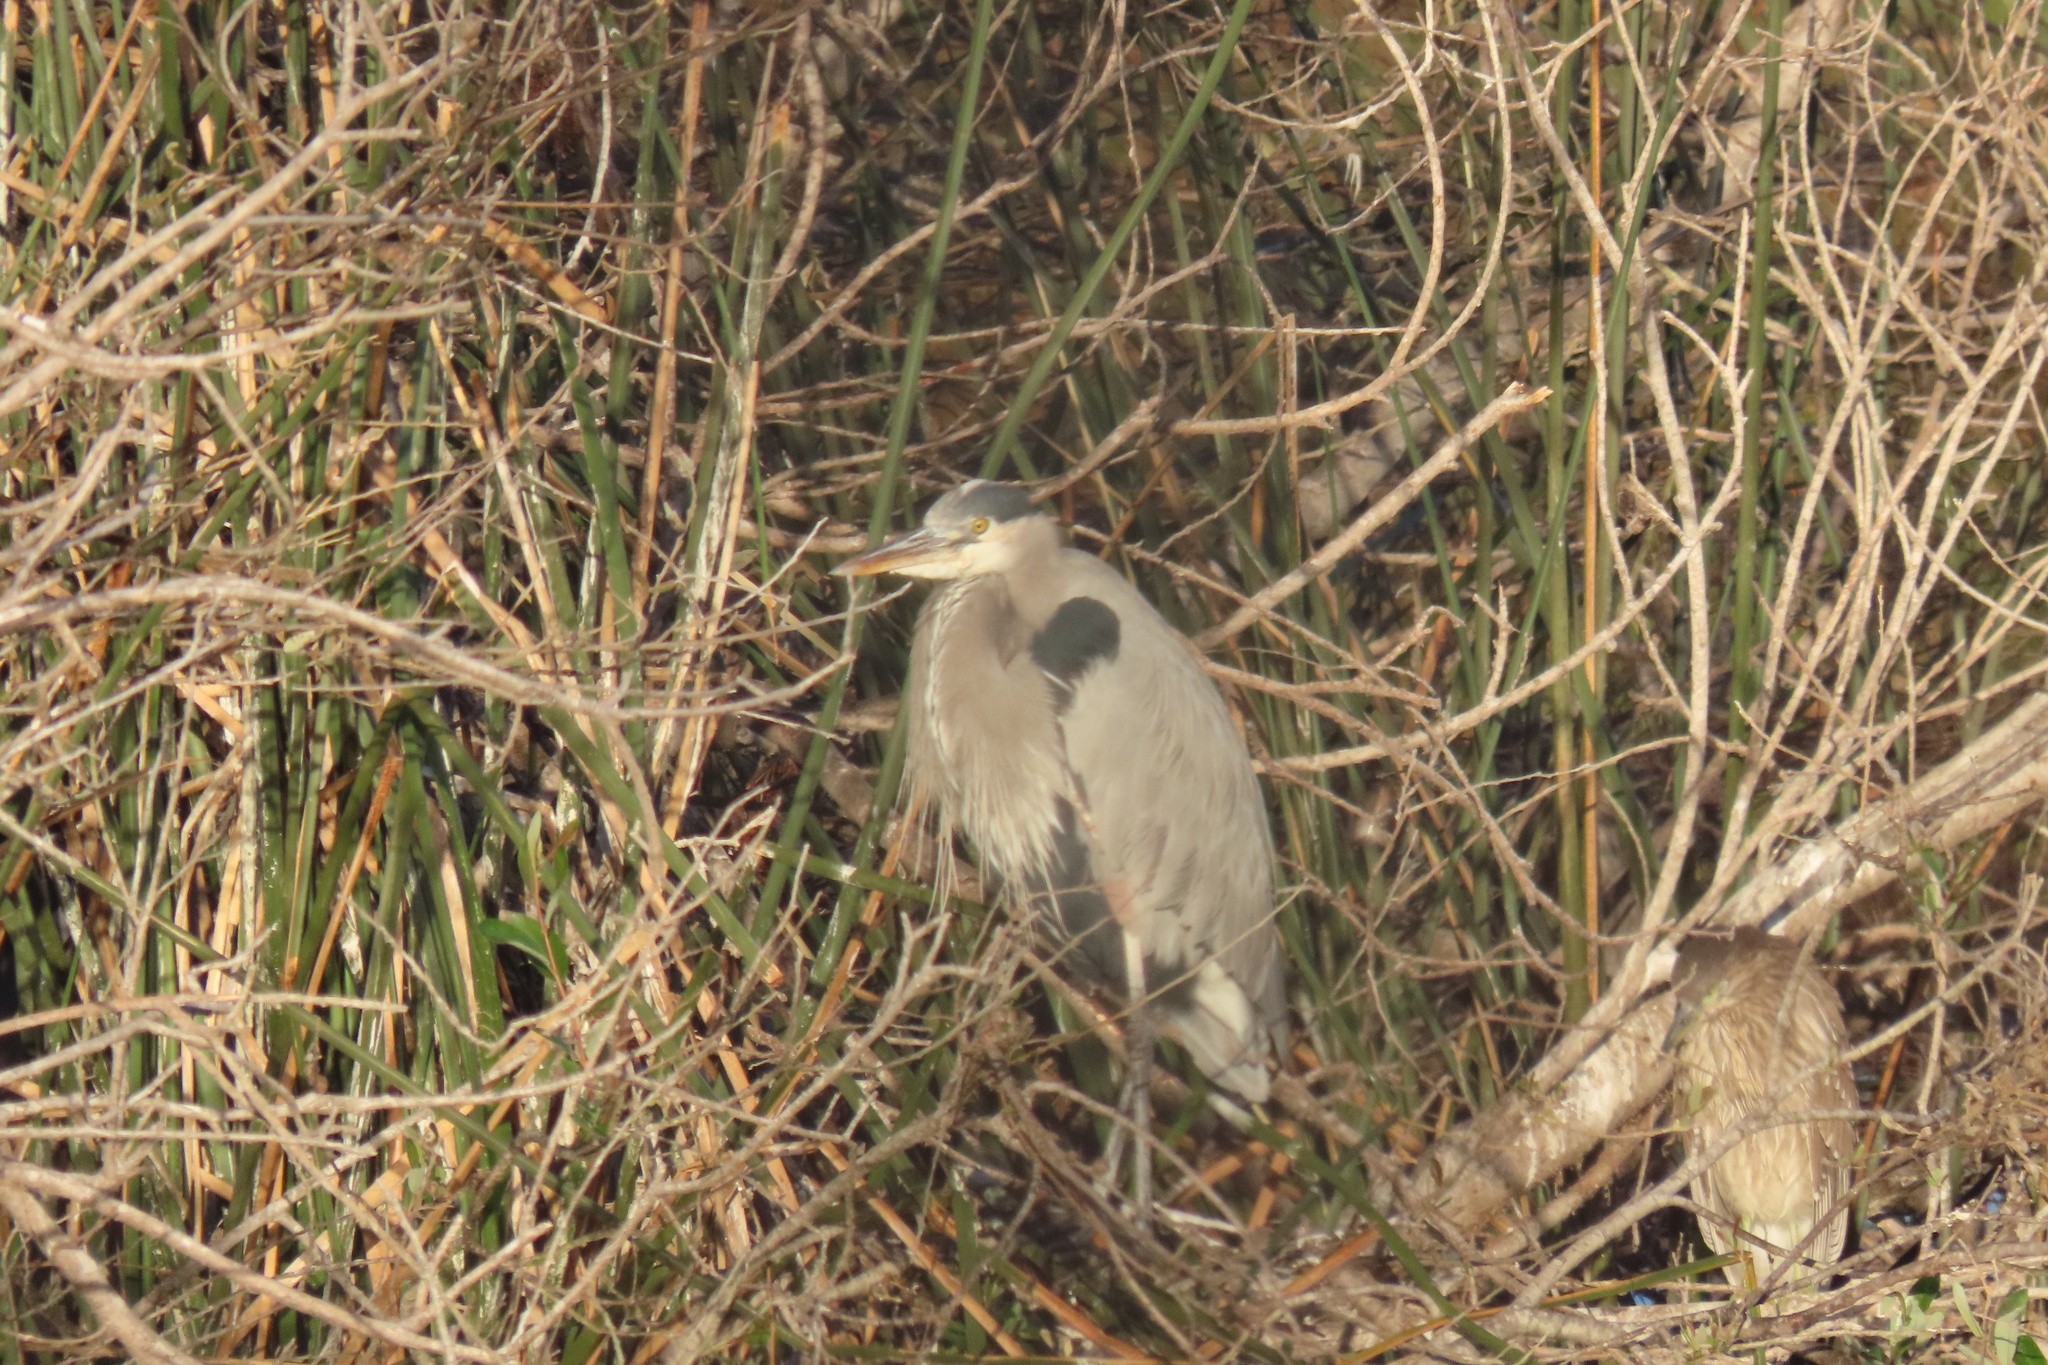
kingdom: Animalia
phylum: Chordata
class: Aves
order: Pelecaniformes
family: Ardeidae
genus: Ardea
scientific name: Ardea herodias
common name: Great blue heron
